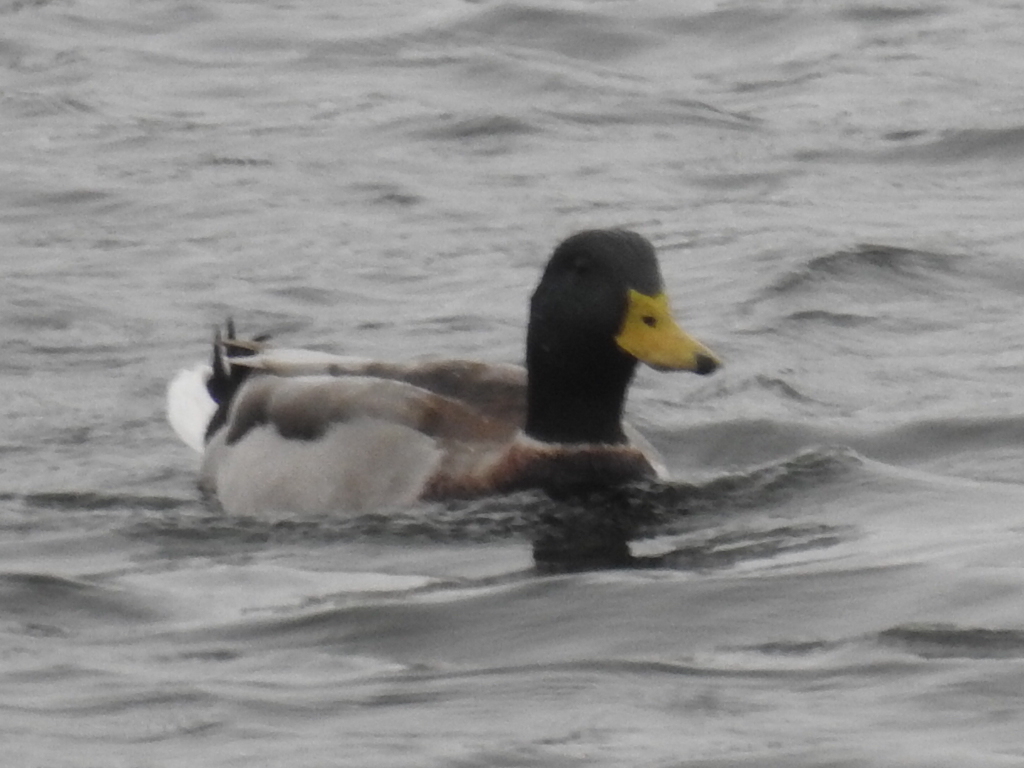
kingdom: Animalia
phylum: Chordata
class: Aves
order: Anseriformes
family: Anatidae
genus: Anas
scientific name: Anas platyrhynchos
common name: Mallard
